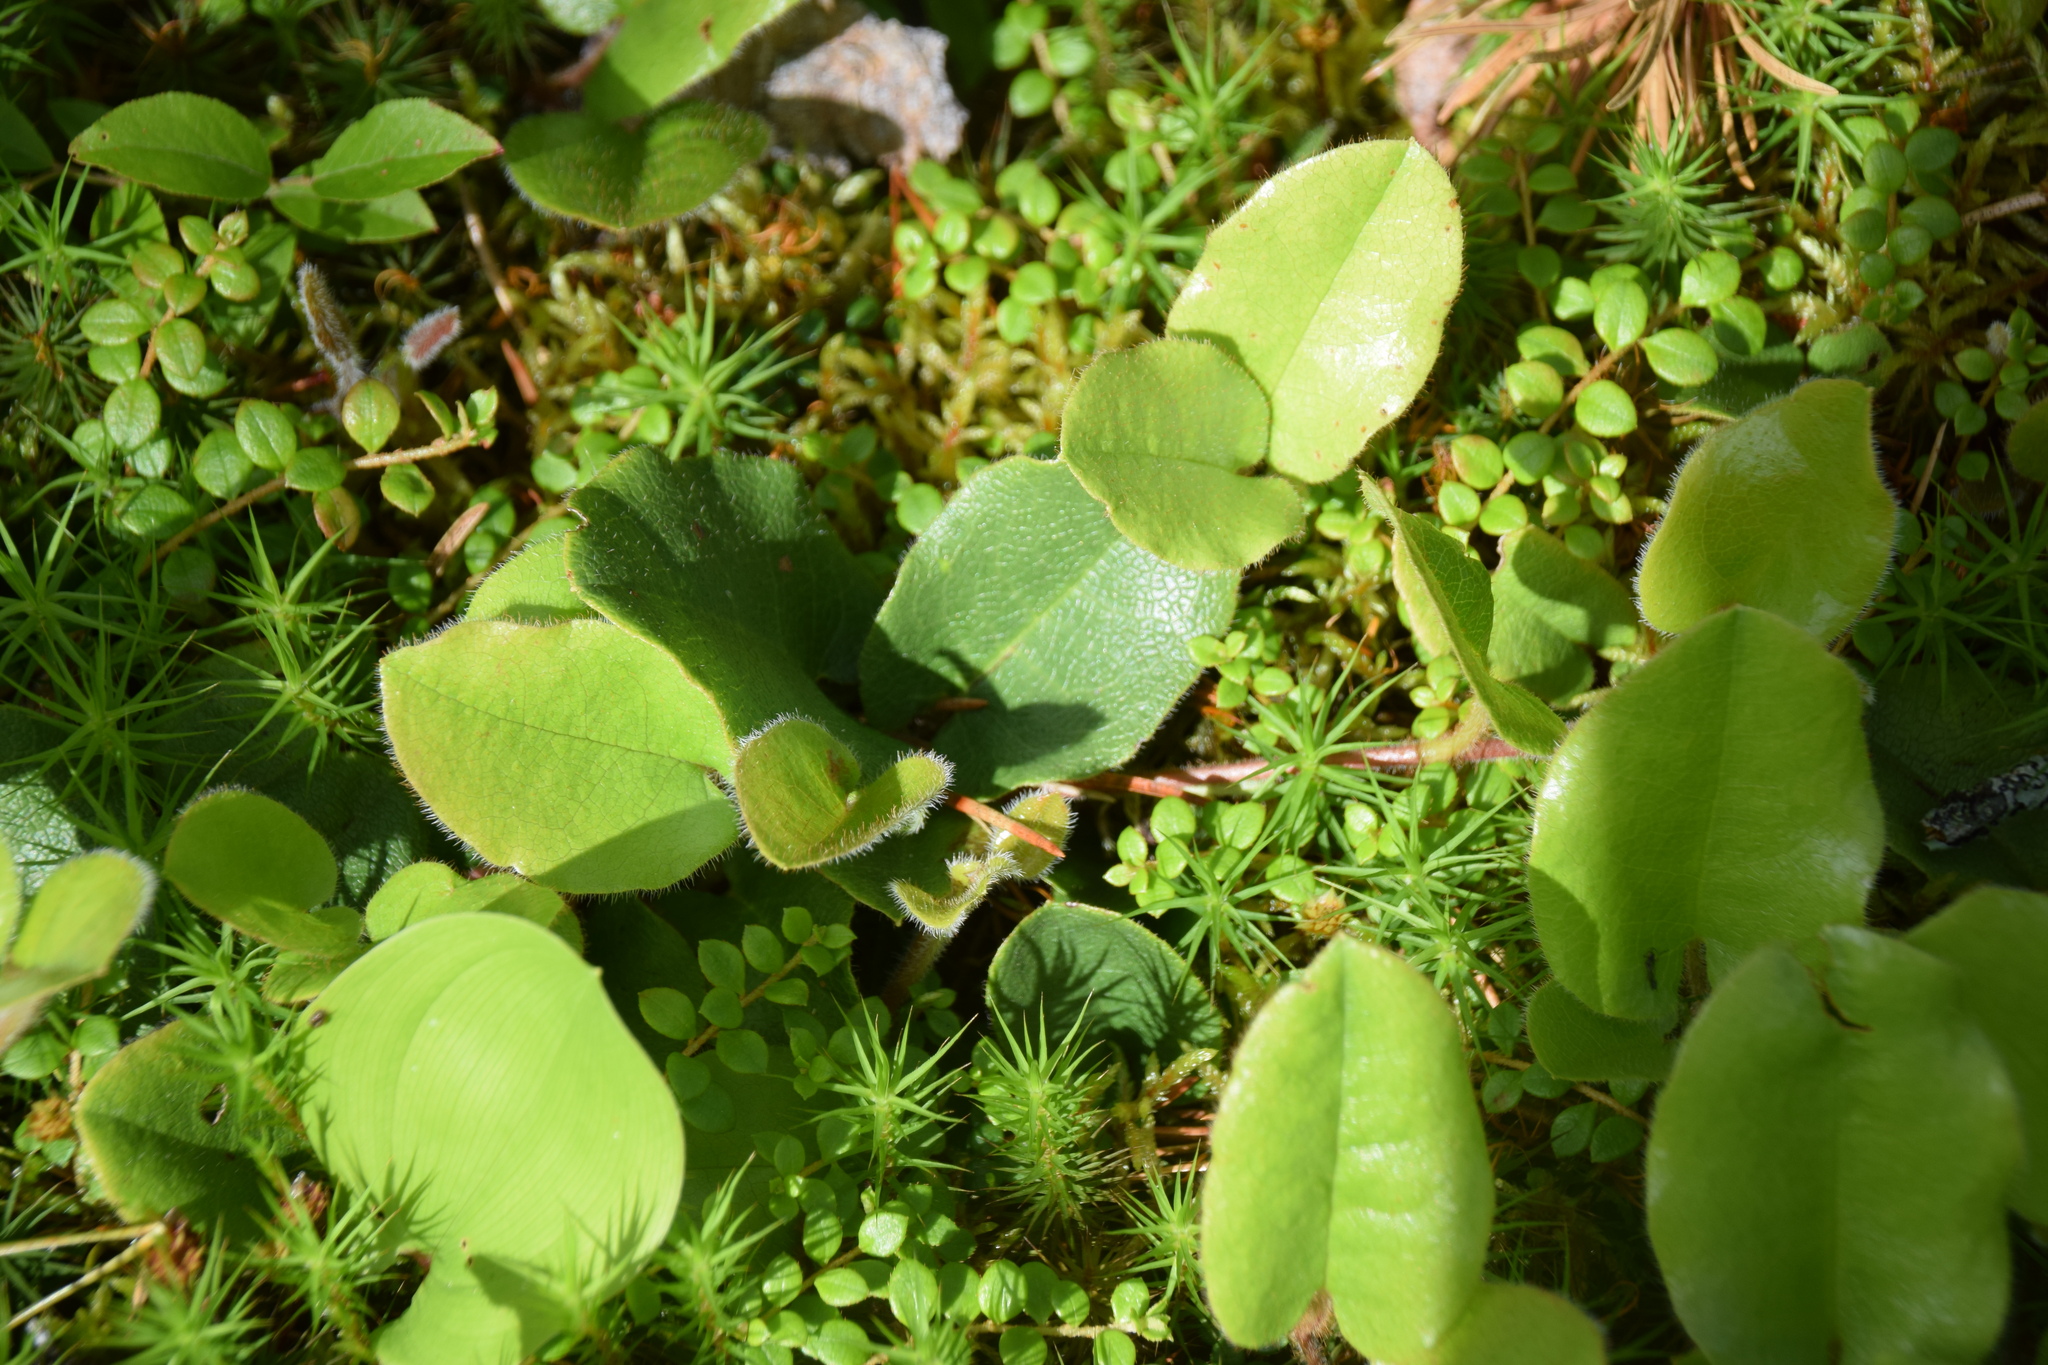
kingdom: Plantae
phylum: Tracheophyta
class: Magnoliopsida
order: Ericales
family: Ericaceae
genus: Epigaea
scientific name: Epigaea repens
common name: Gravelroot
